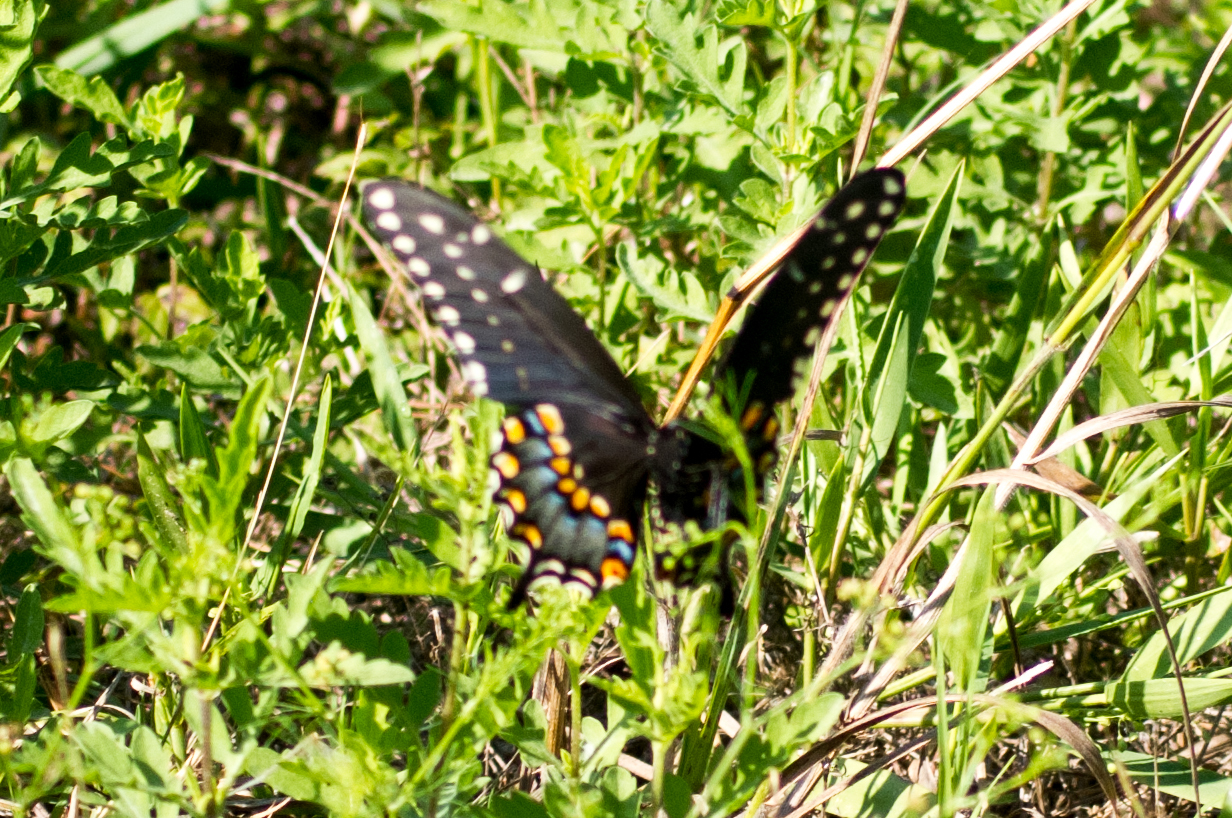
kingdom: Animalia
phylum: Arthropoda
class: Insecta
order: Lepidoptera
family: Papilionidae
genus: Papilio
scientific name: Papilio polyxenes
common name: Black swallowtail
